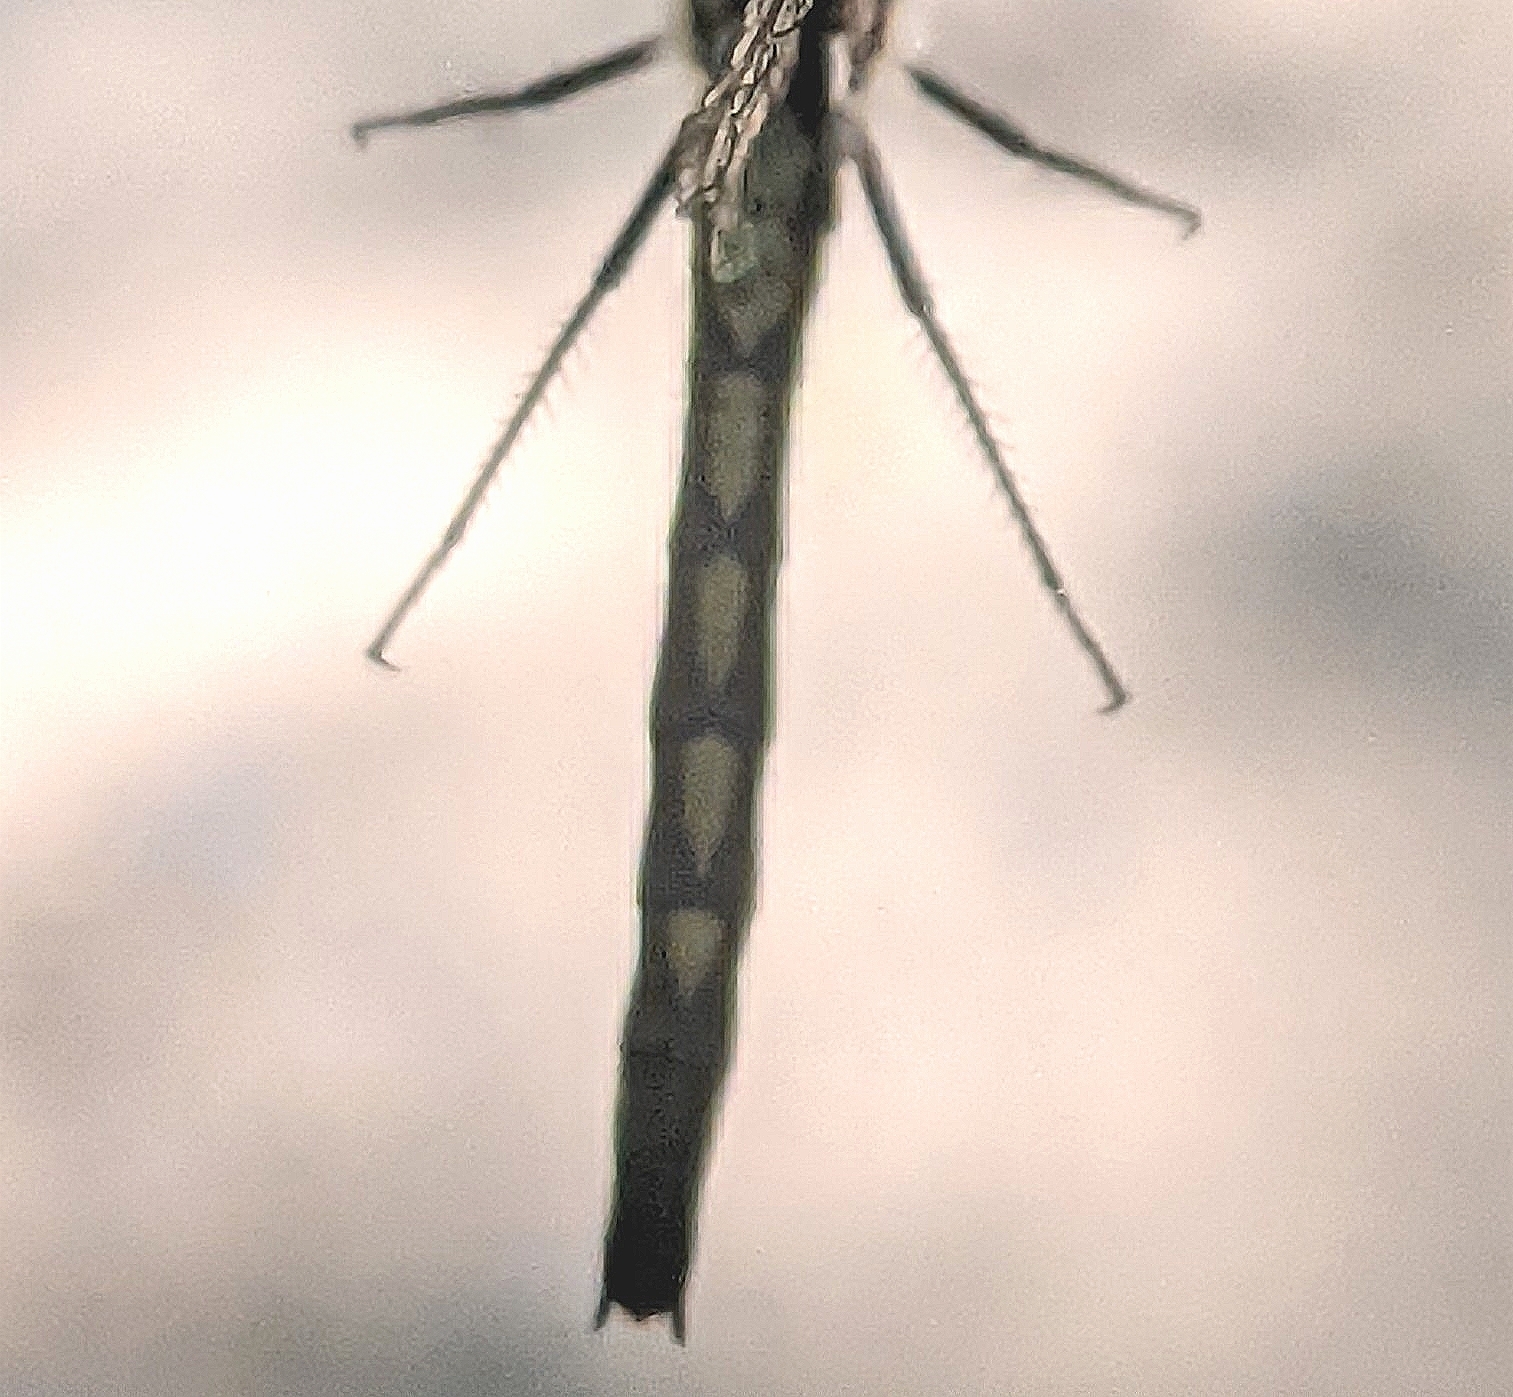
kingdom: Animalia
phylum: Arthropoda
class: Insecta
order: Odonata
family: Libellulidae
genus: Leucorrhinia
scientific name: Leucorrhinia hudsonica
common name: Hudsonian whiteface
